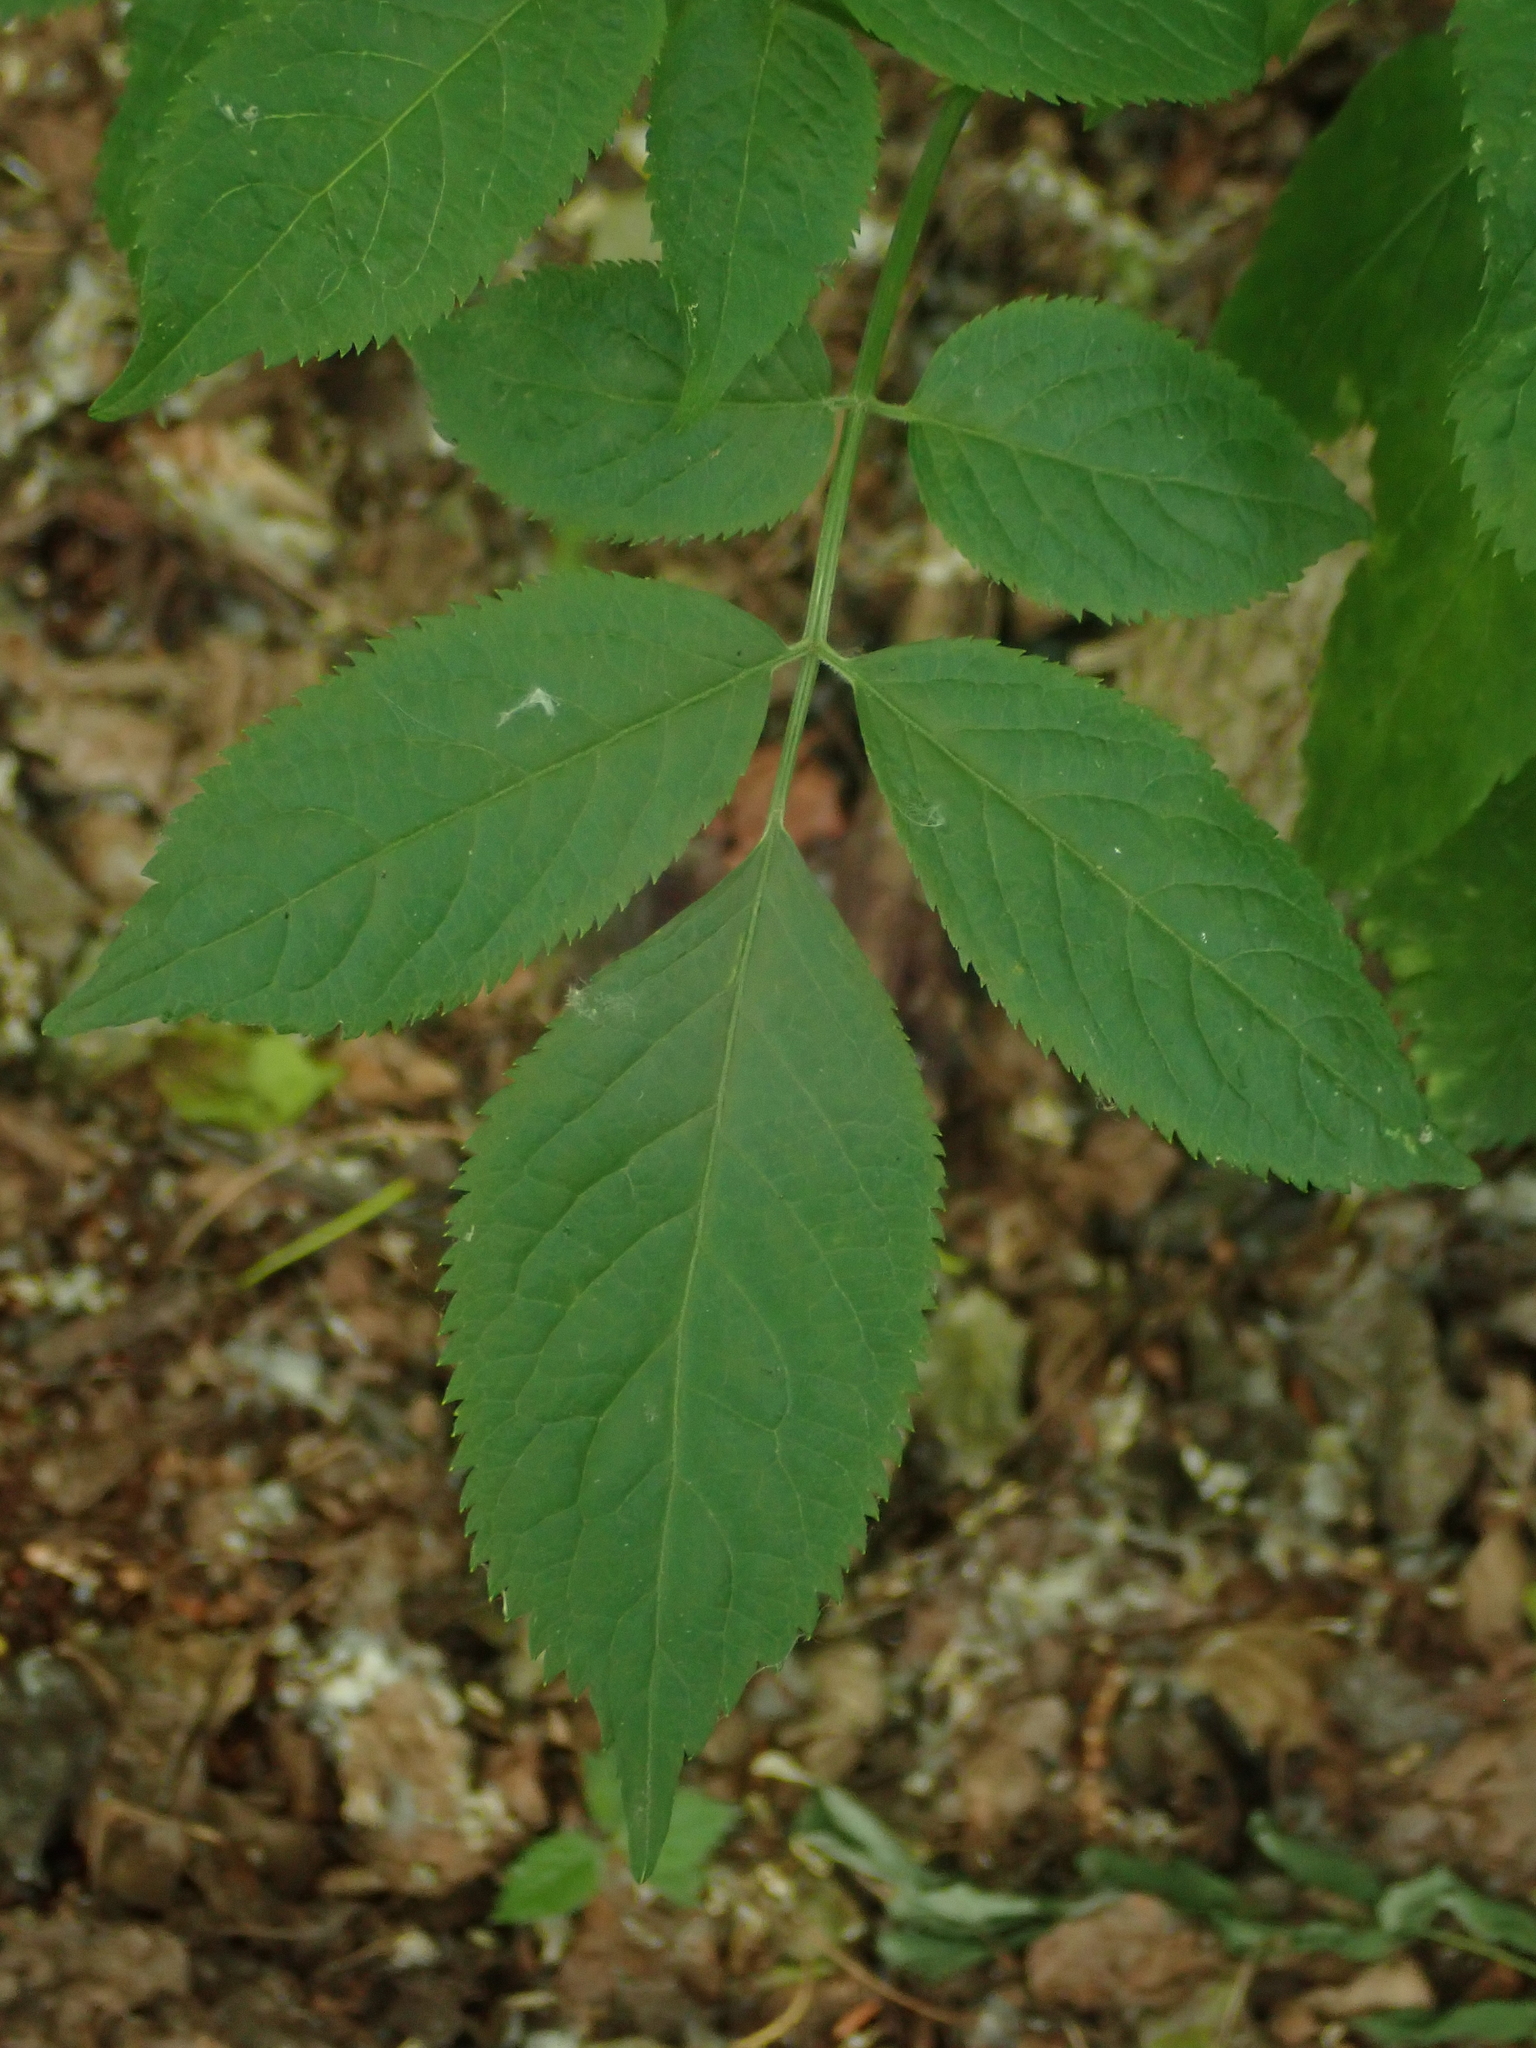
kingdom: Plantae
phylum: Tracheophyta
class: Magnoliopsida
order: Dipsacales
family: Viburnaceae
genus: Sambucus
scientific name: Sambucus nigra
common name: Elder
